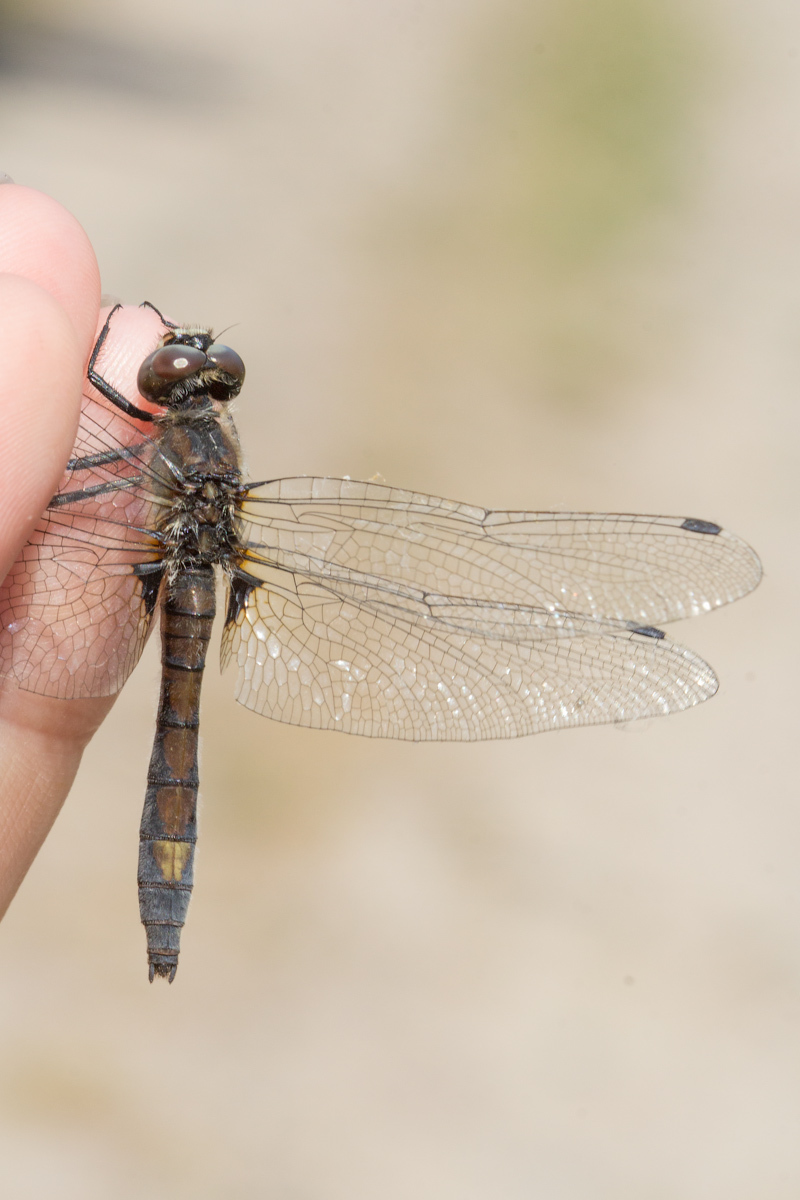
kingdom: Animalia
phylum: Arthropoda
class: Insecta
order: Odonata
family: Libellulidae
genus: Leucorrhinia
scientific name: Leucorrhinia pectoralis
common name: Yellow-spotted whiteface
